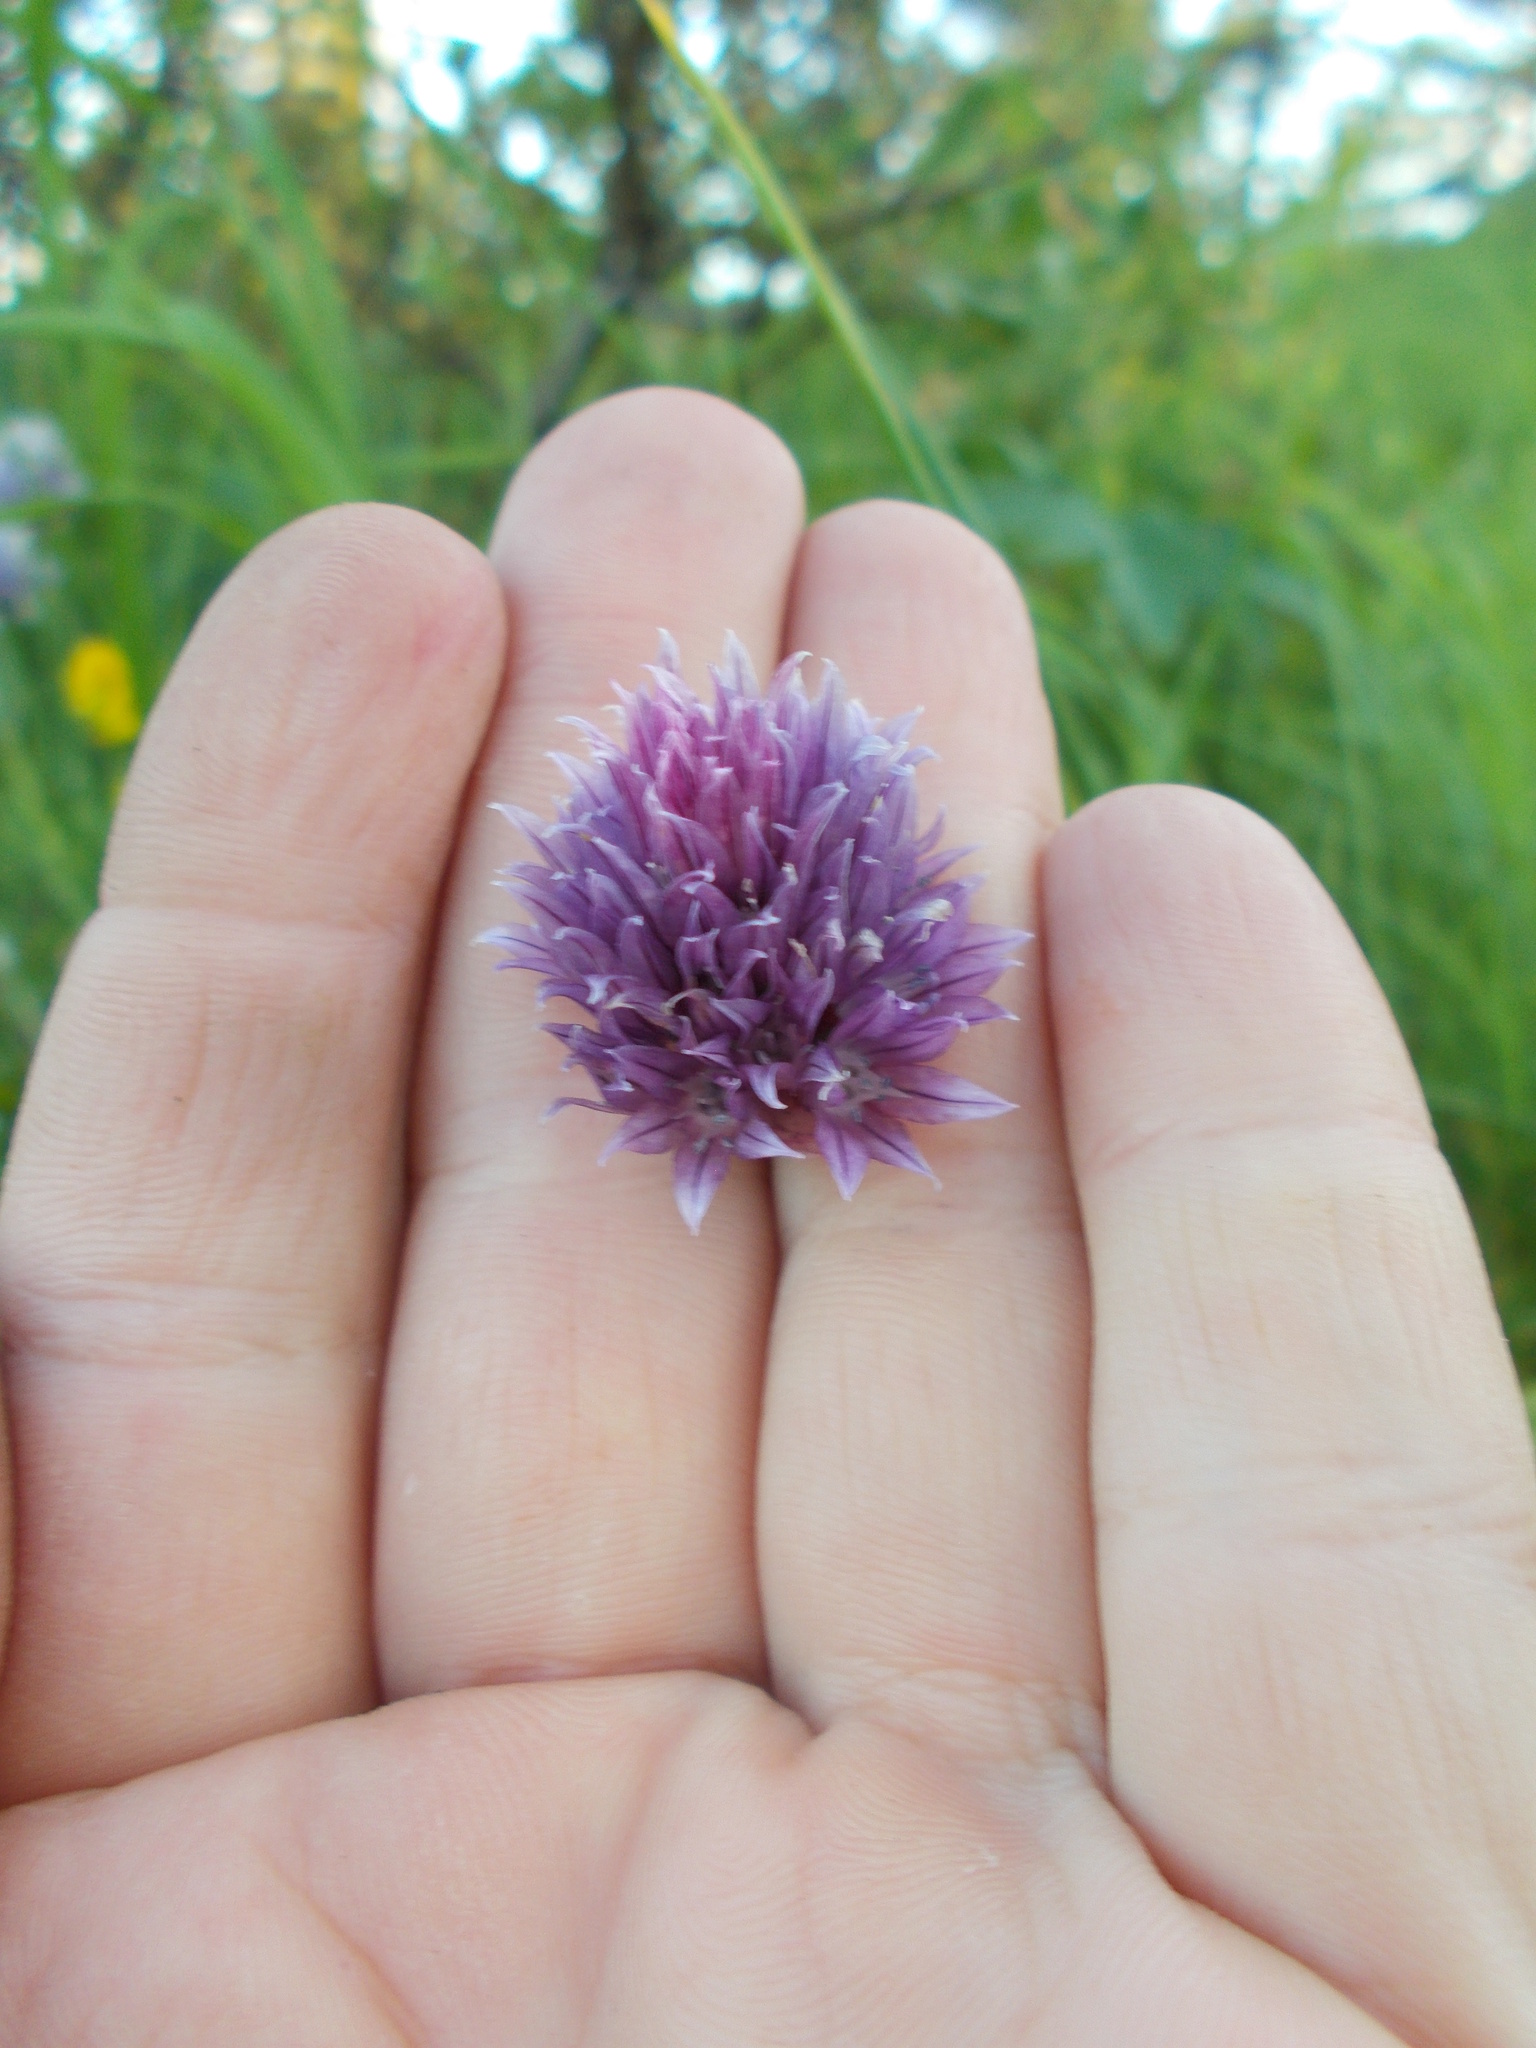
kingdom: Plantae
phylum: Tracheophyta
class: Liliopsida
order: Asparagales
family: Amaryllidaceae
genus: Allium
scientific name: Allium schoenoprasum
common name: Chives
